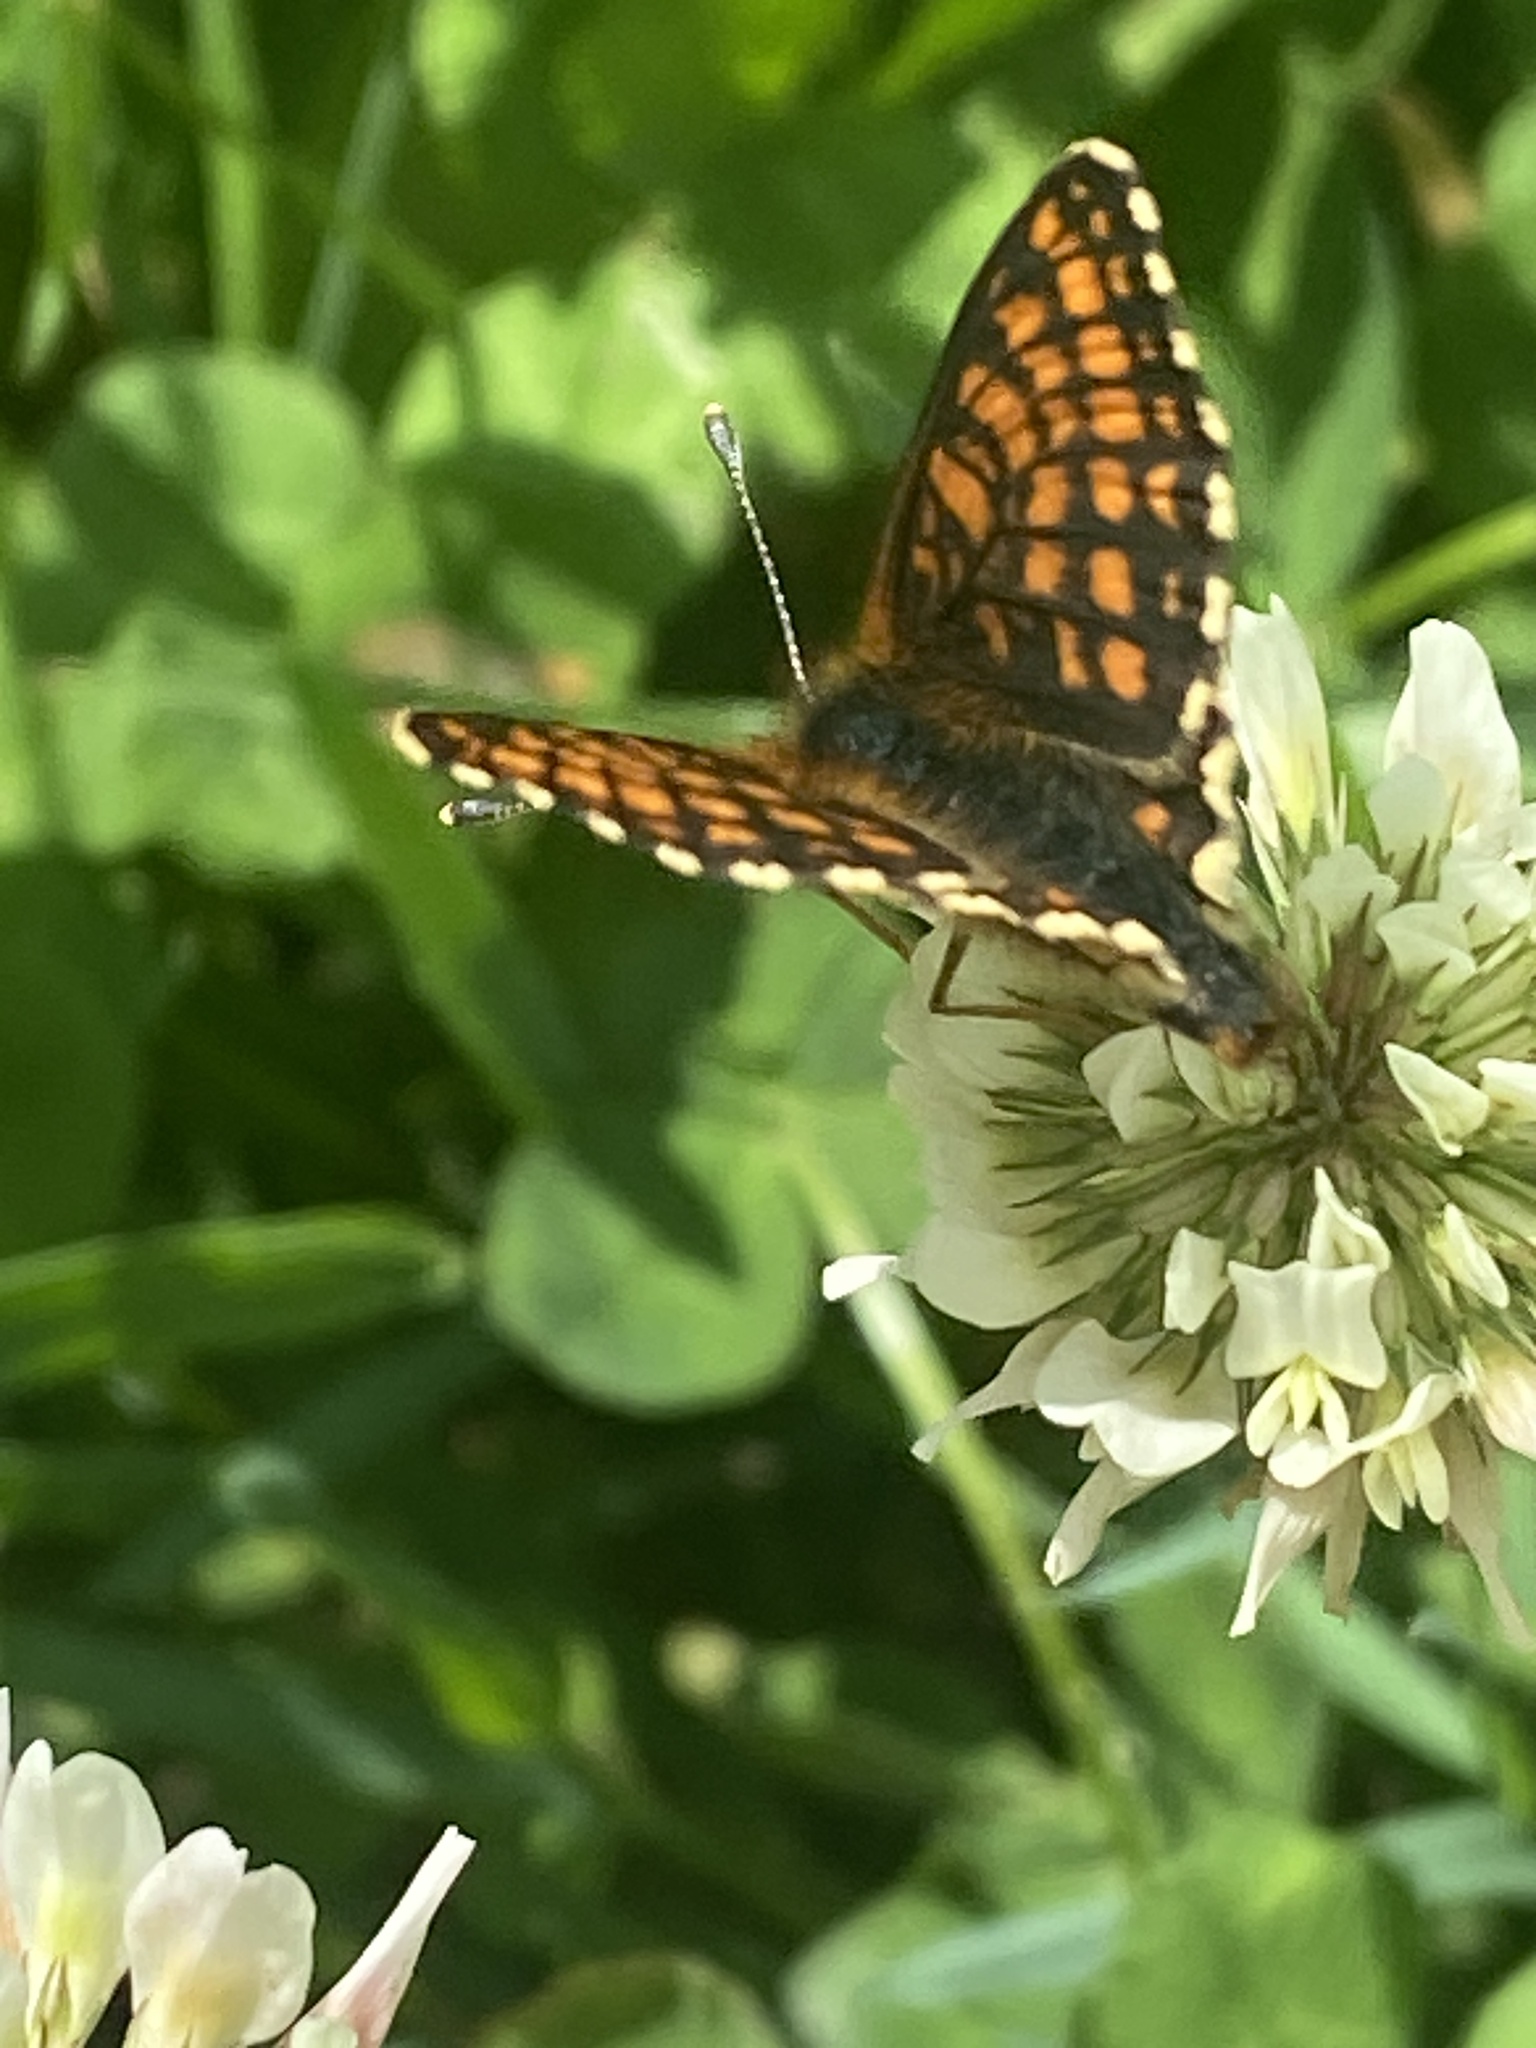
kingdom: Animalia
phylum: Arthropoda
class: Insecta
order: Lepidoptera
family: Nymphalidae
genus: Melitaea
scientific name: Melitaea athalia
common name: Heath fritillary
